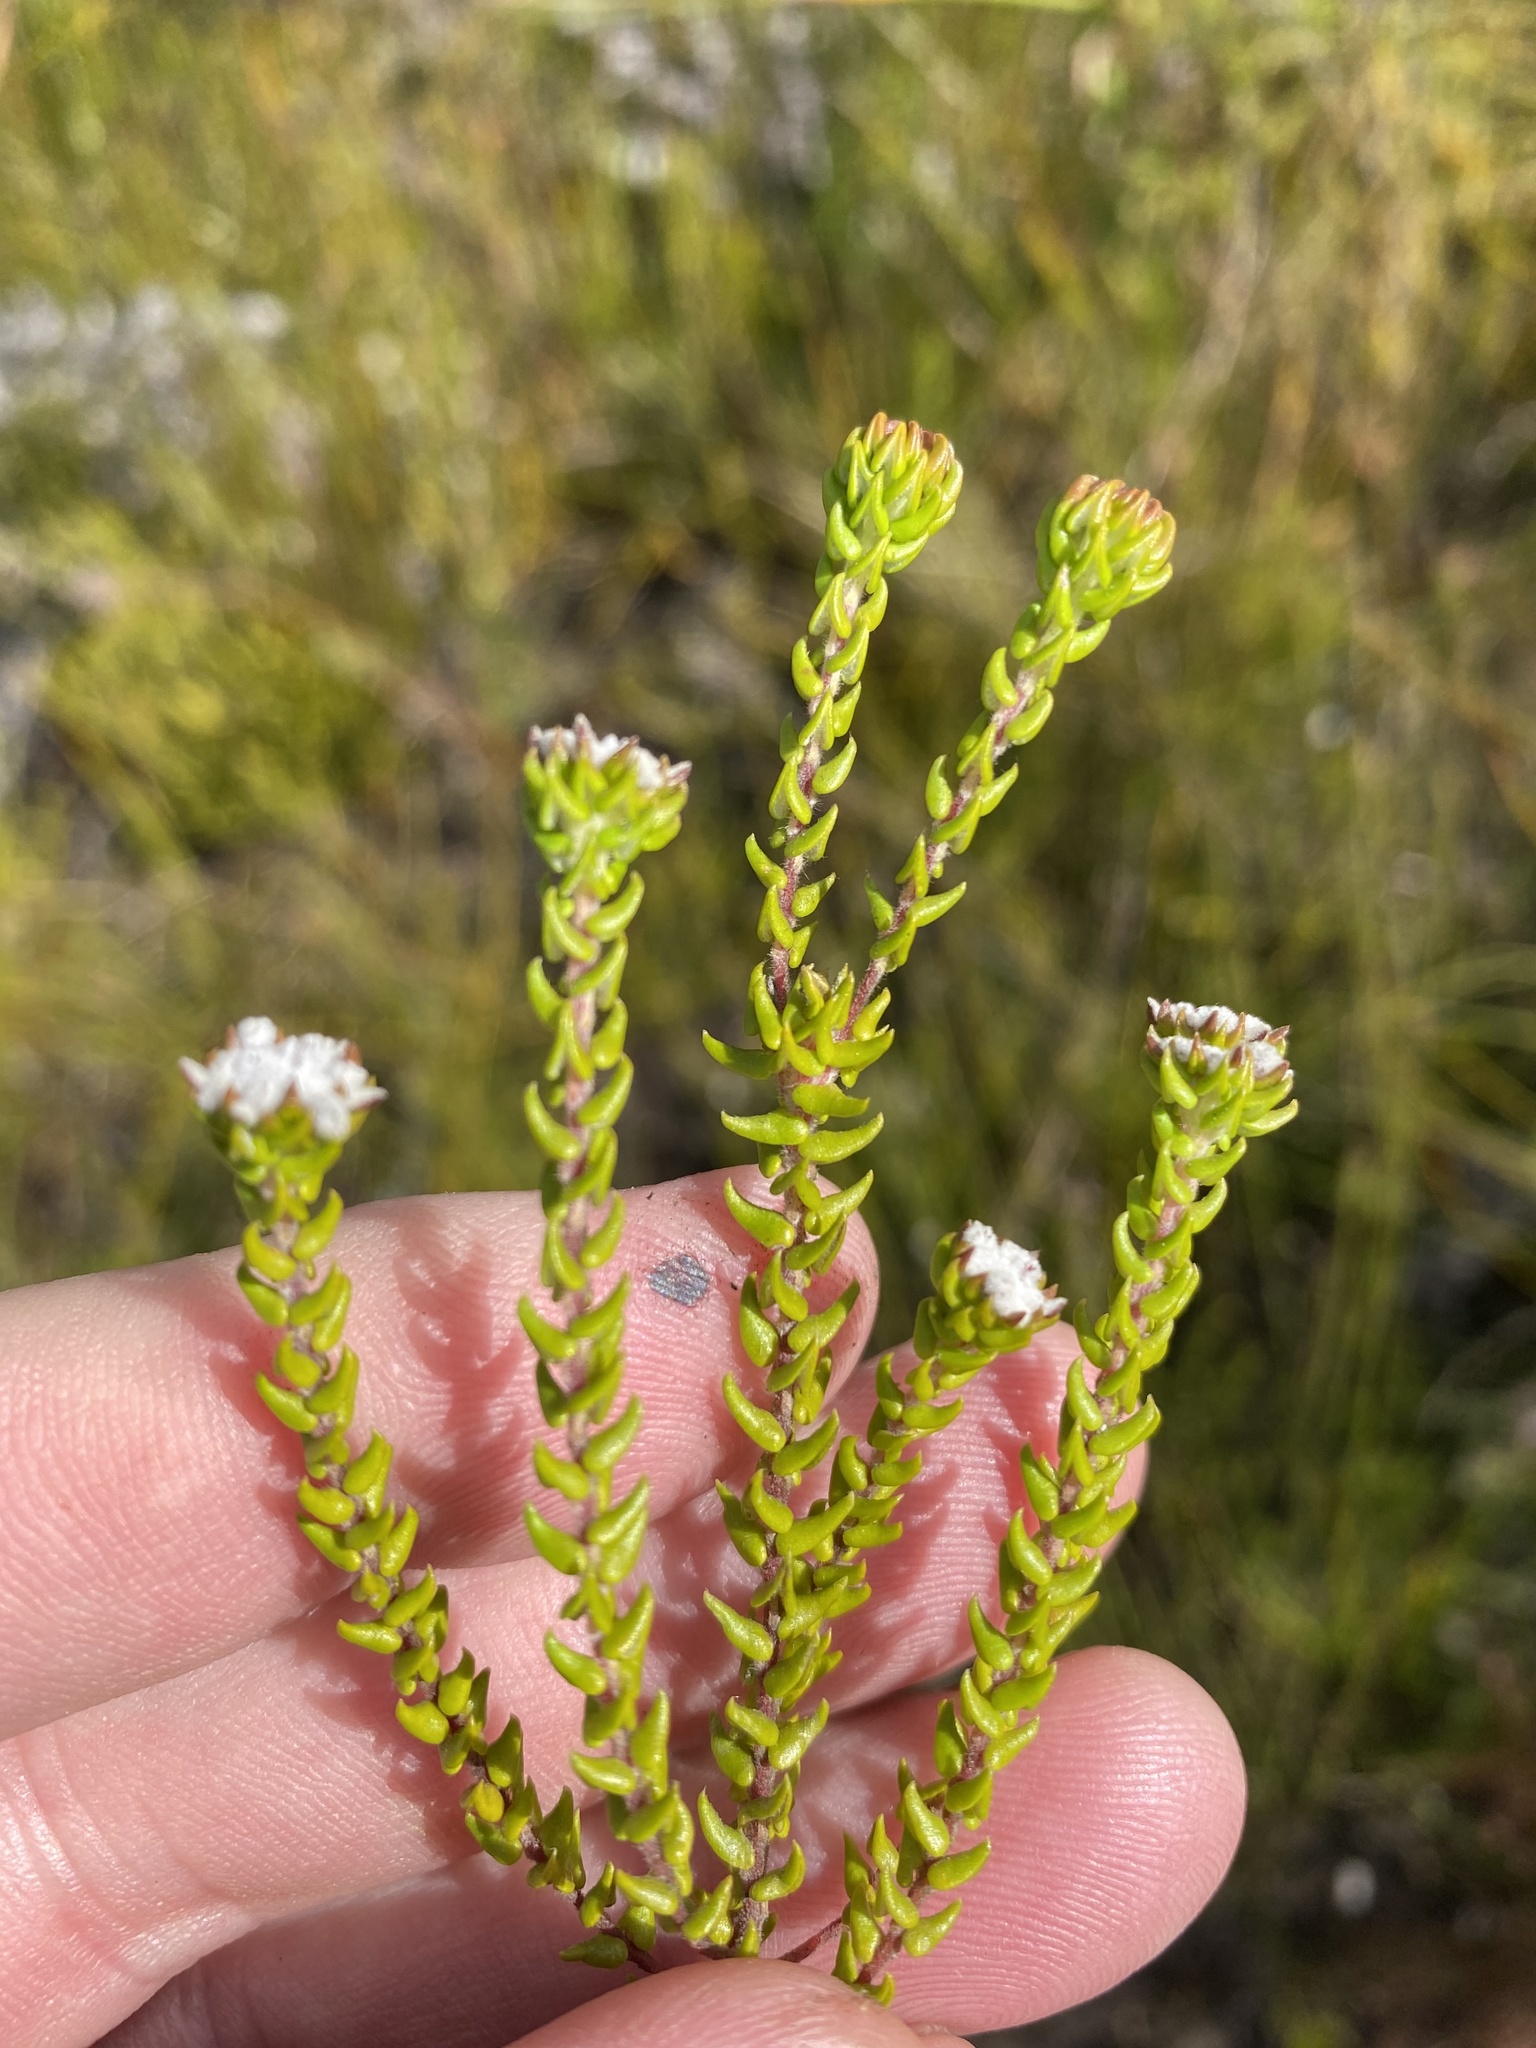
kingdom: Plantae
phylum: Tracheophyta
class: Magnoliopsida
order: Rosales
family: Rhamnaceae
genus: Phylica
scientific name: Phylica debilis
